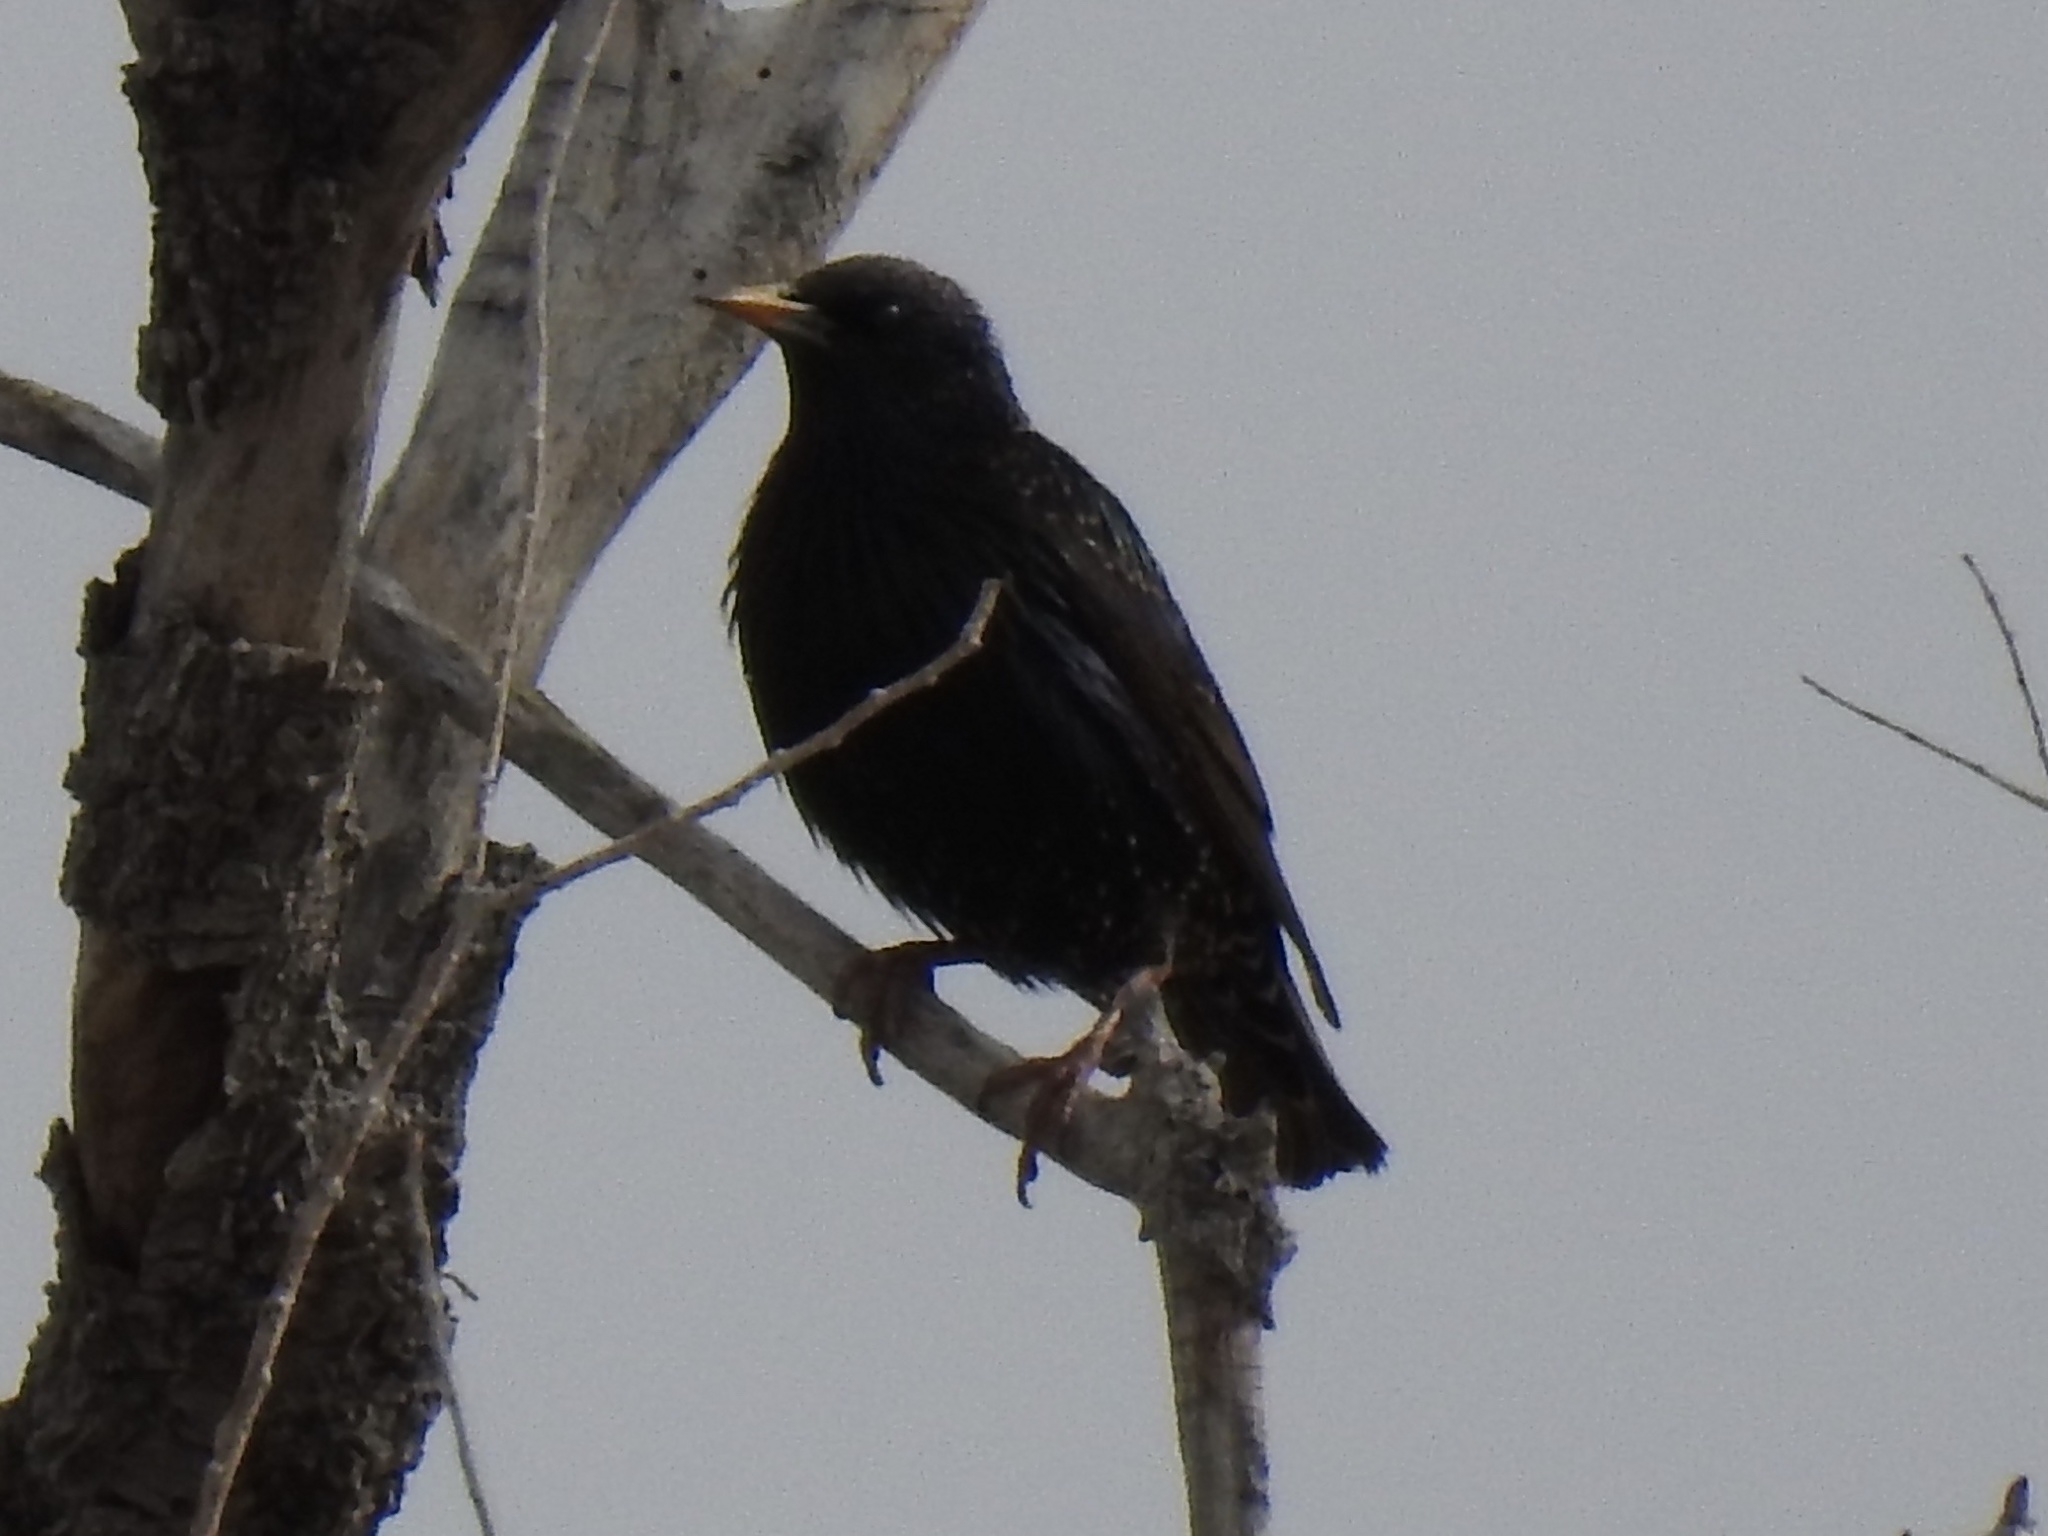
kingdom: Animalia
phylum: Chordata
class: Aves
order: Passeriformes
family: Sturnidae
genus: Sturnus
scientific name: Sturnus vulgaris
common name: Common starling
